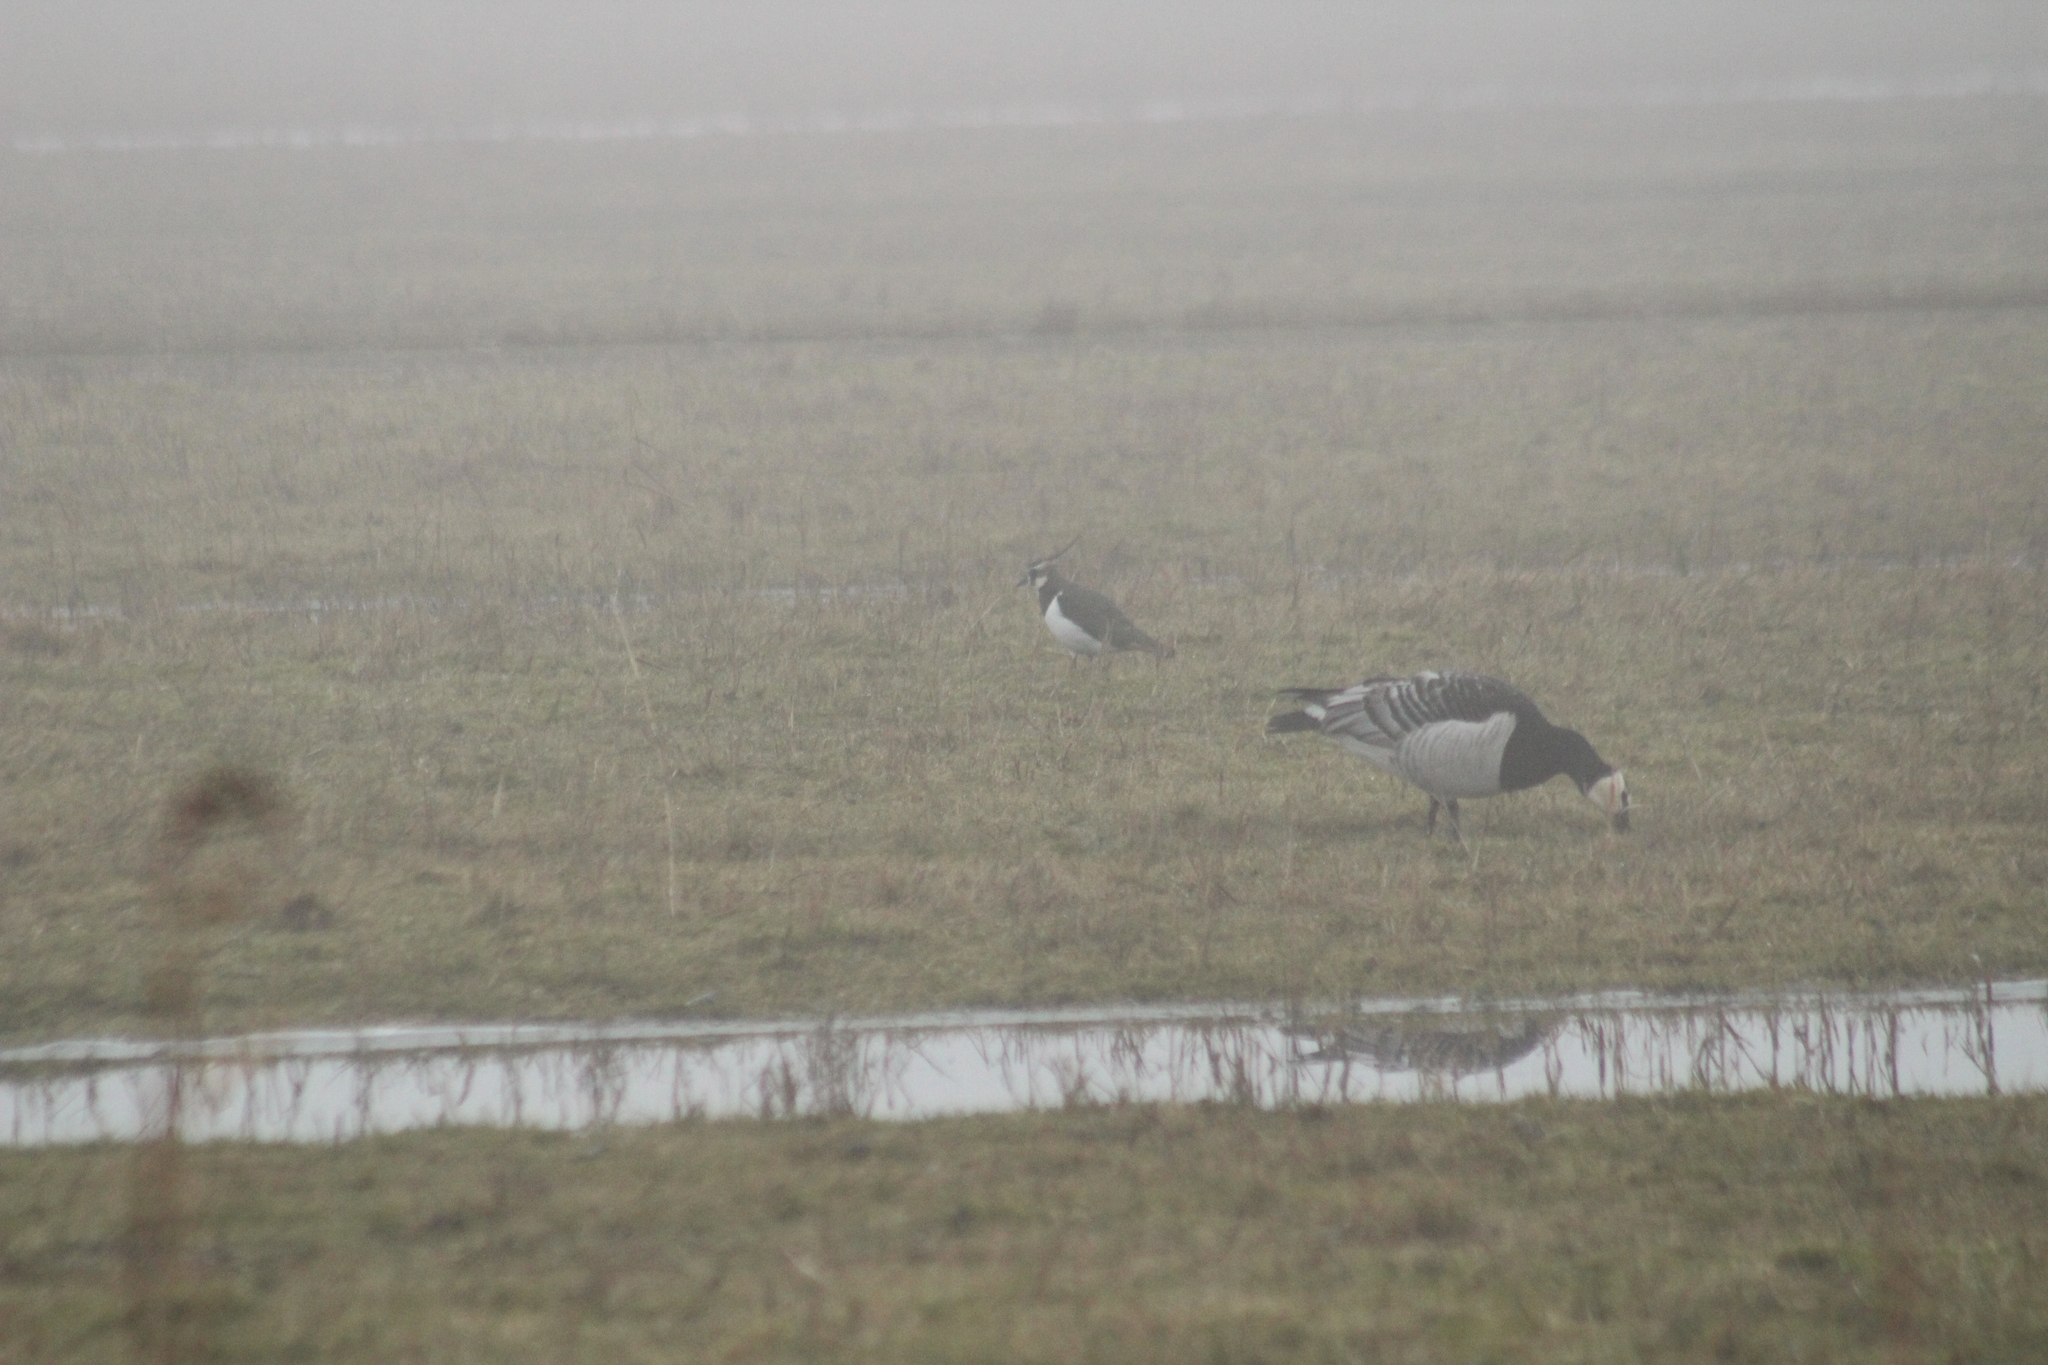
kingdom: Animalia
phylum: Chordata
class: Aves
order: Charadriiformes
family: Charadriidae
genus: Vanellus
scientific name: Vanellus vanellus
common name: Northern lapwing
